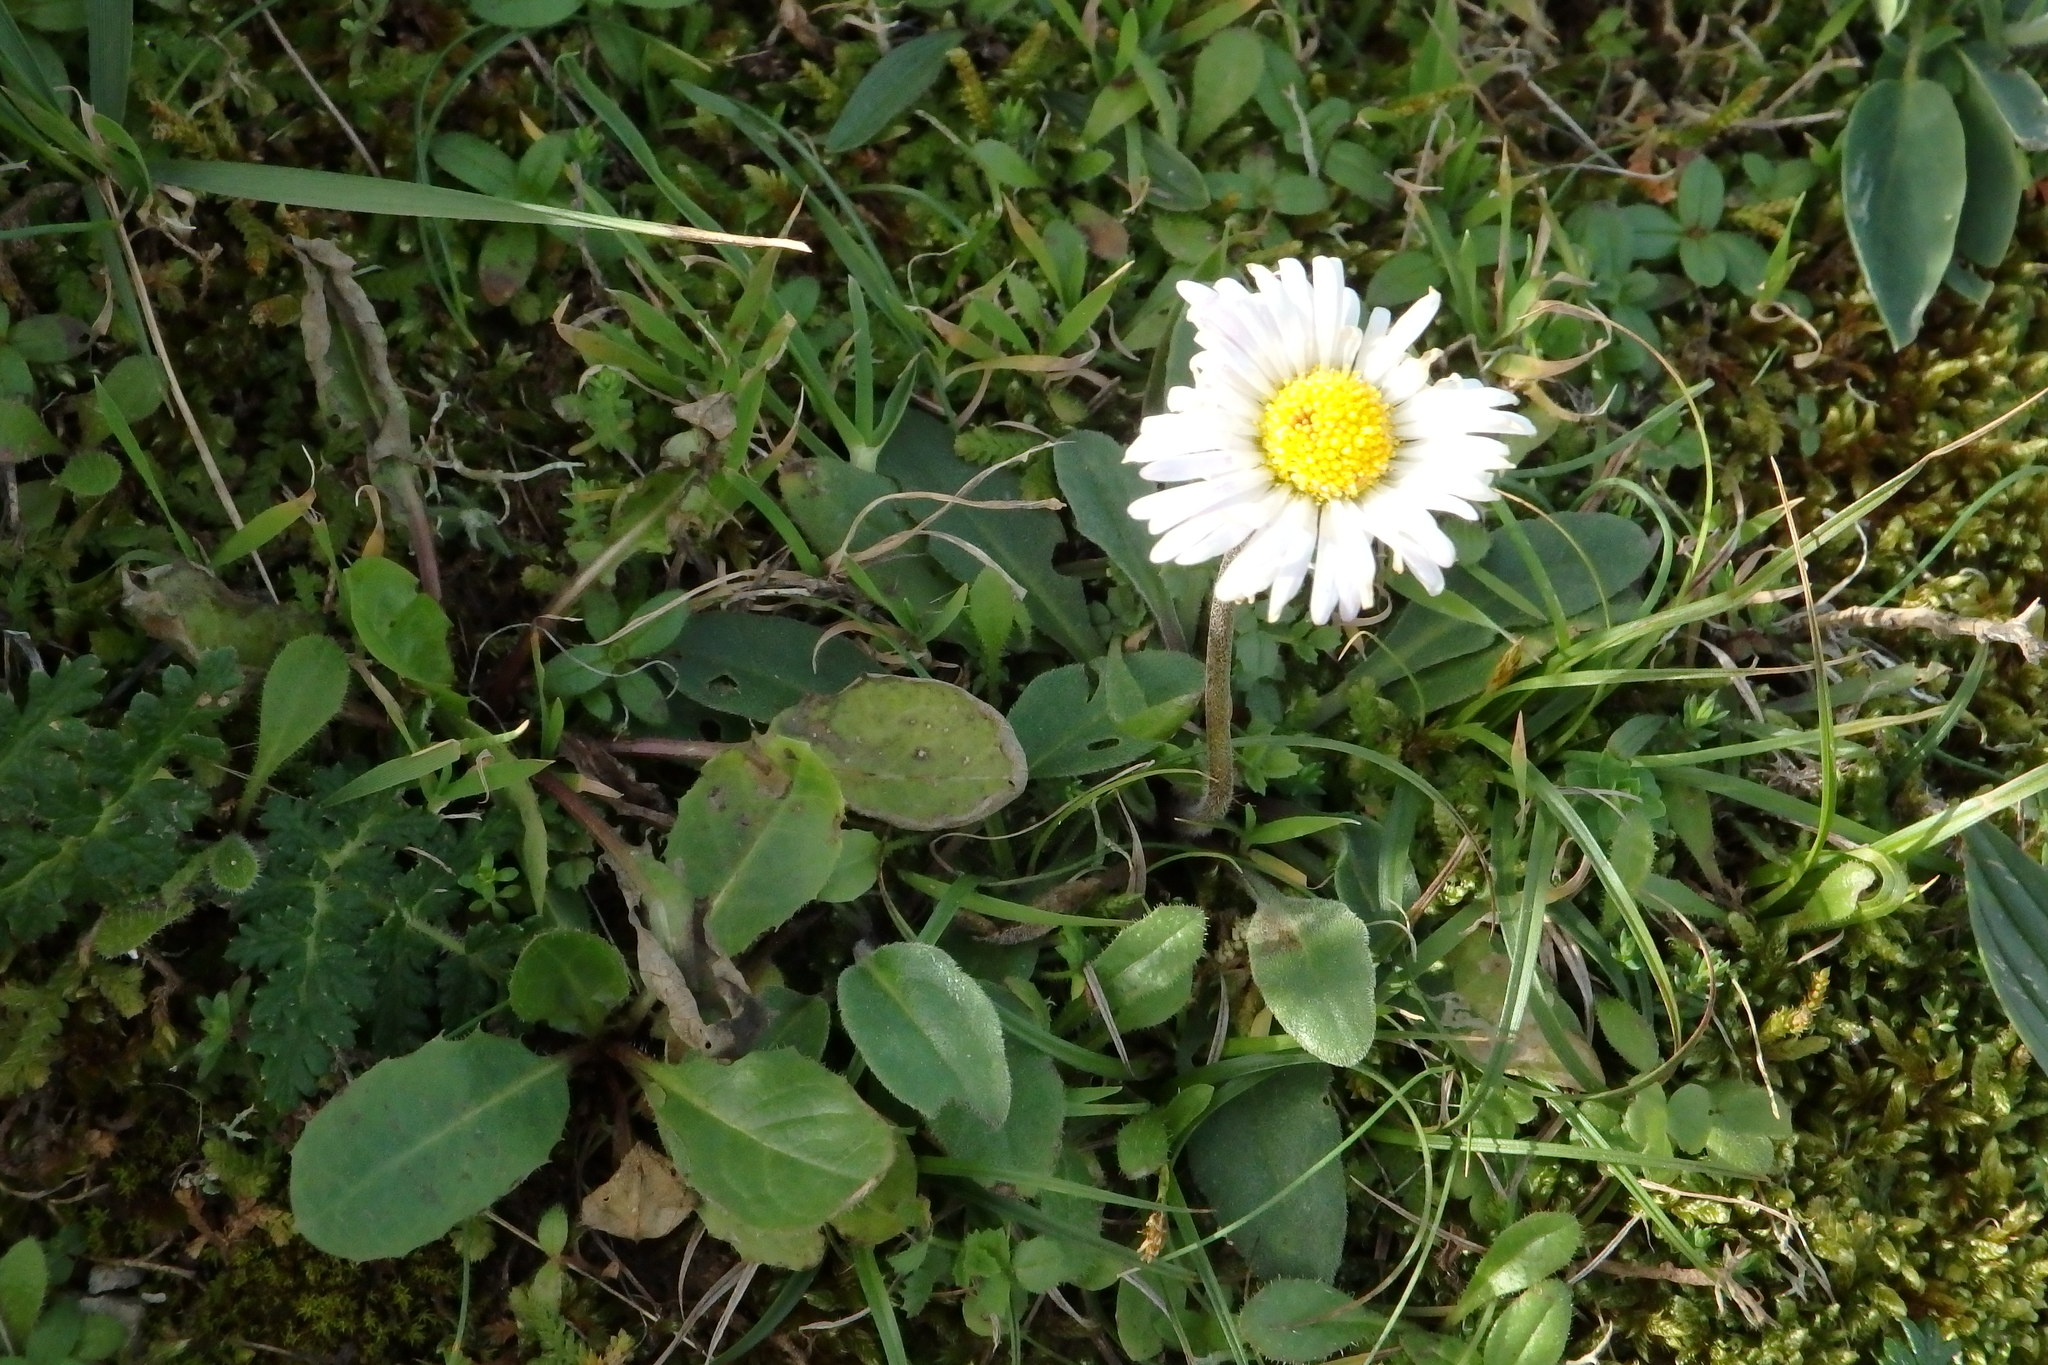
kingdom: Plantae
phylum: Tracheophyta
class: Magnoliopsida
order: Asterales
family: Asteraceae
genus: Bellis
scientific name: Bellis sylvestris
